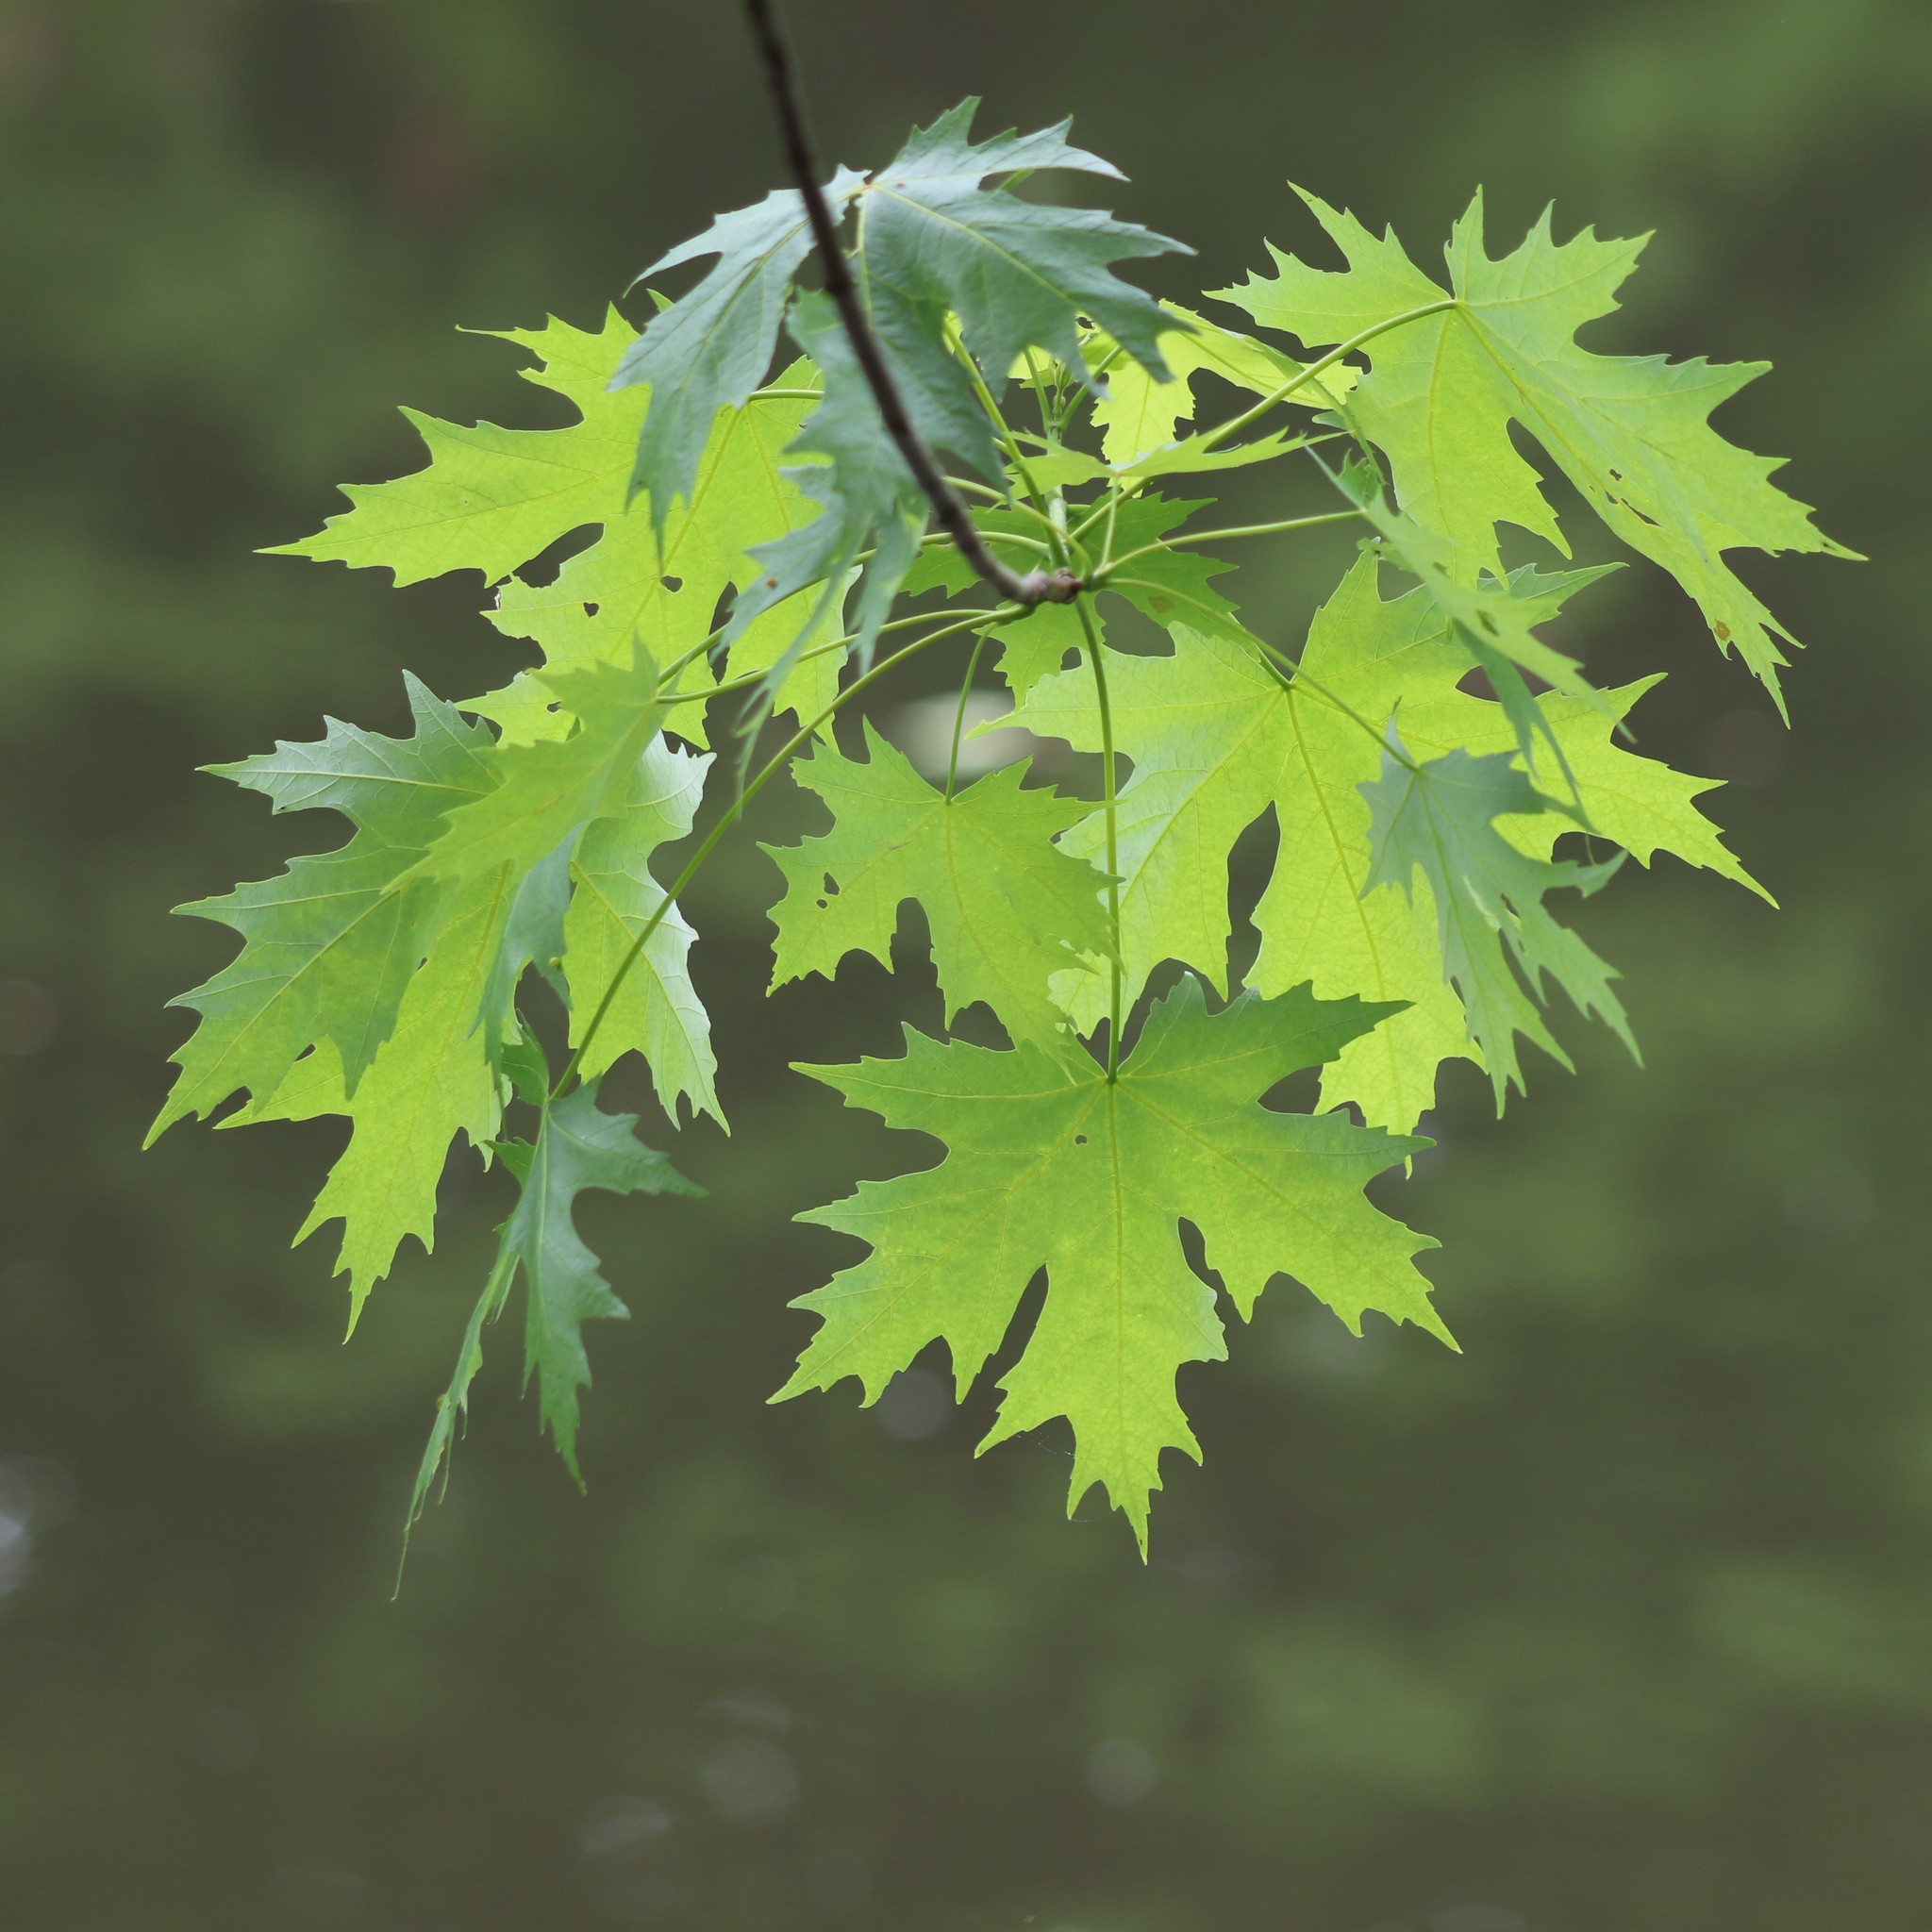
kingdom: Plantae
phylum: Tracheophyta
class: Magnoliopsida
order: Sapindales
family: Sapindaceae
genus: Acer
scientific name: Acer saccharinum
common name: Silver maple
